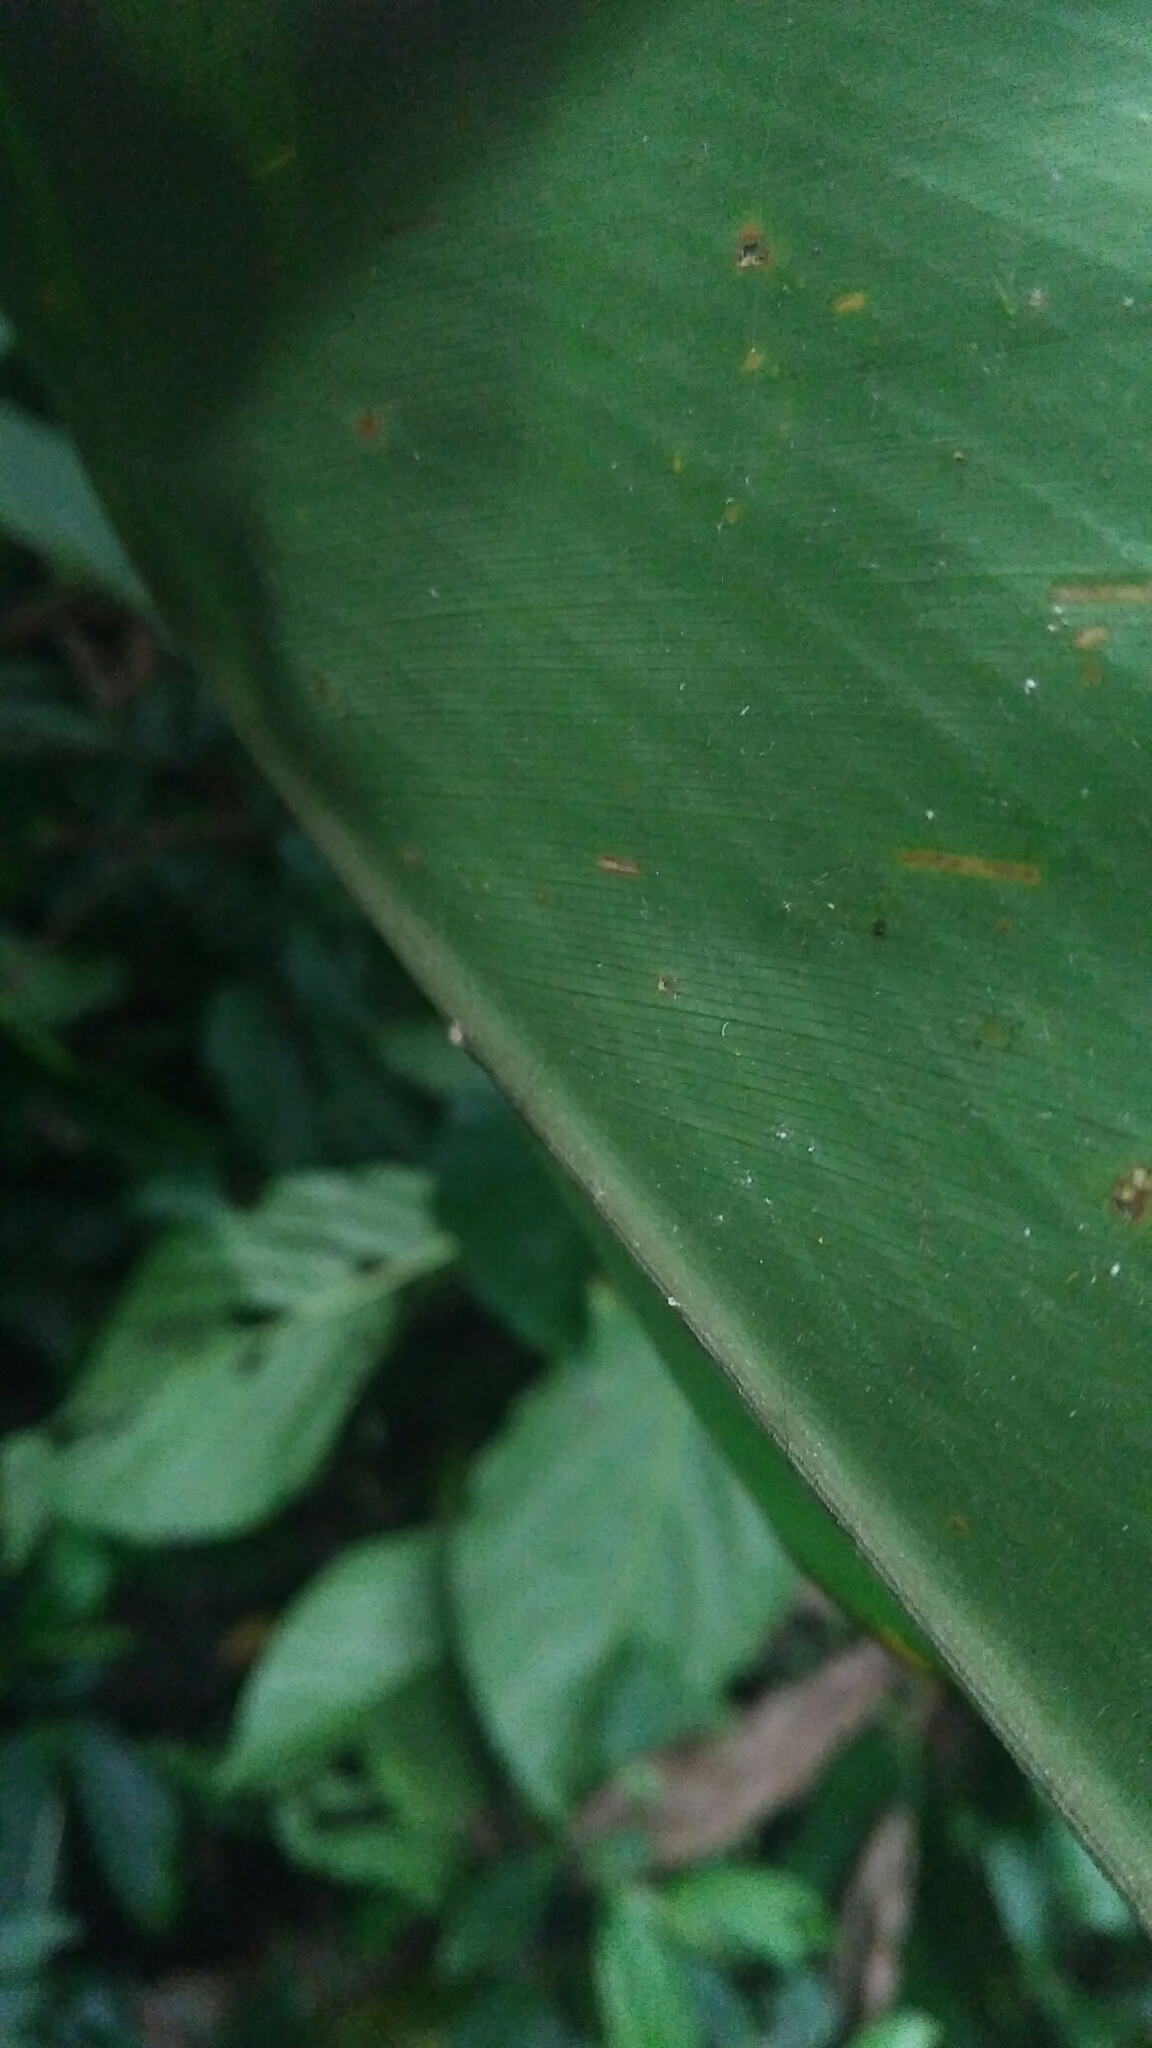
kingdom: Plantae
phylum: Tracheophyta
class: Liliopsida
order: Zingiberales
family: Zingiberaceae
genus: Alpinia
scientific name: Alpinia pricei
